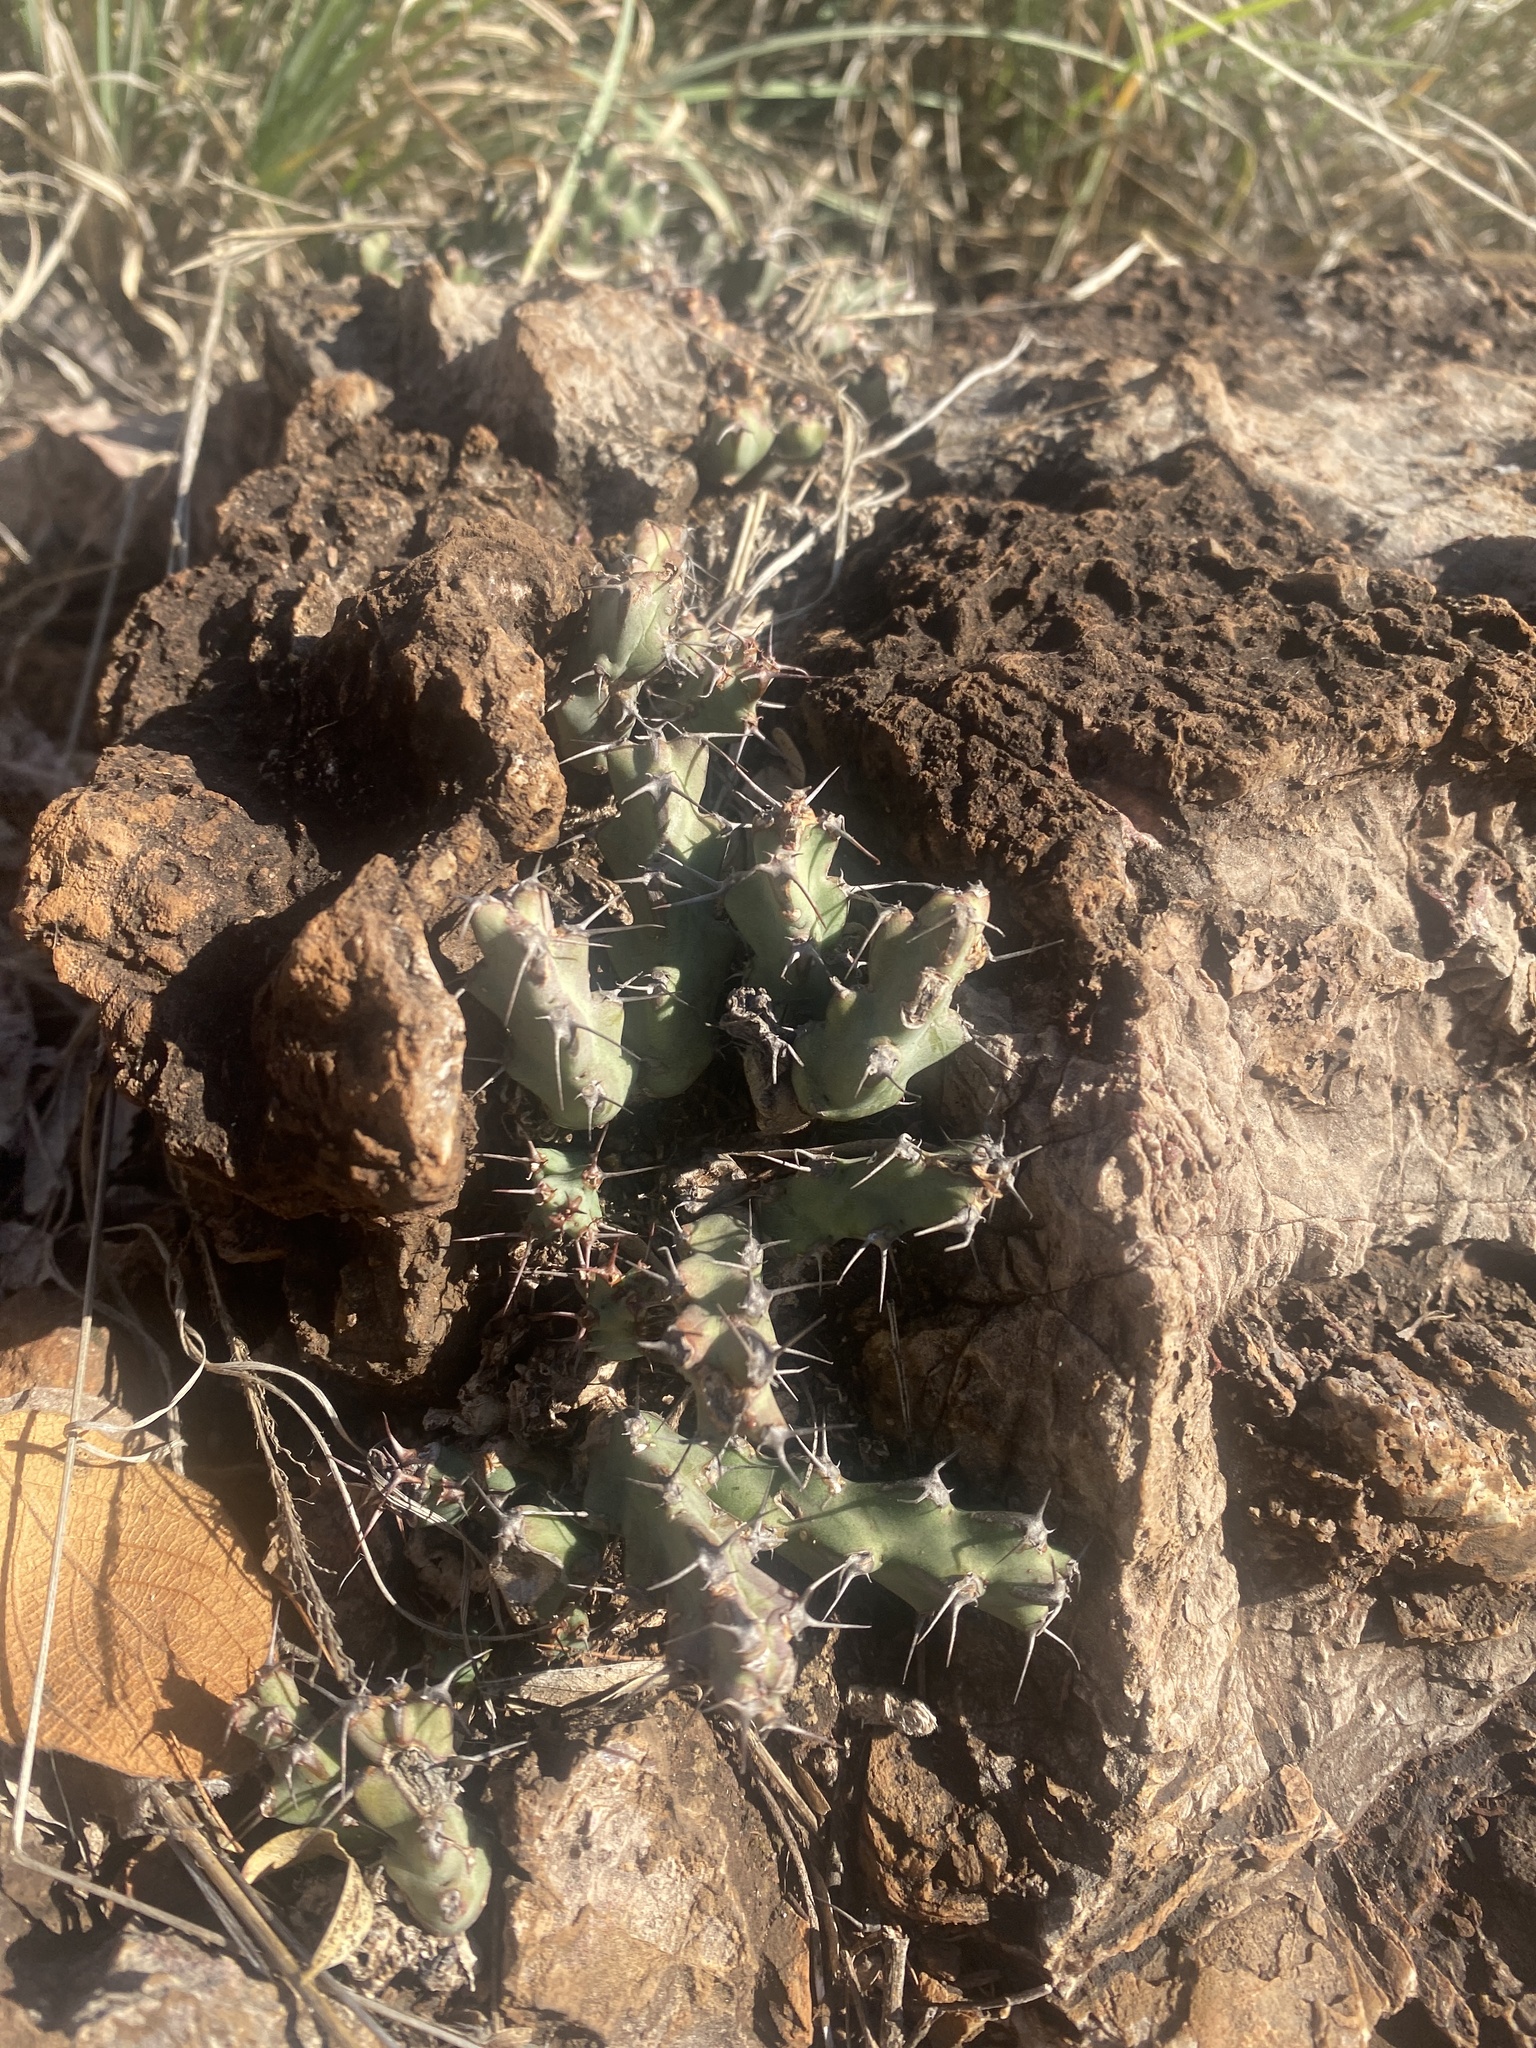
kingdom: Plantae
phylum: Tracheophyta
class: Magnoliopsida
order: Malpighiales
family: Euphorbiaceae
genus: Euphorbia
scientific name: Euphorbia schinzii
